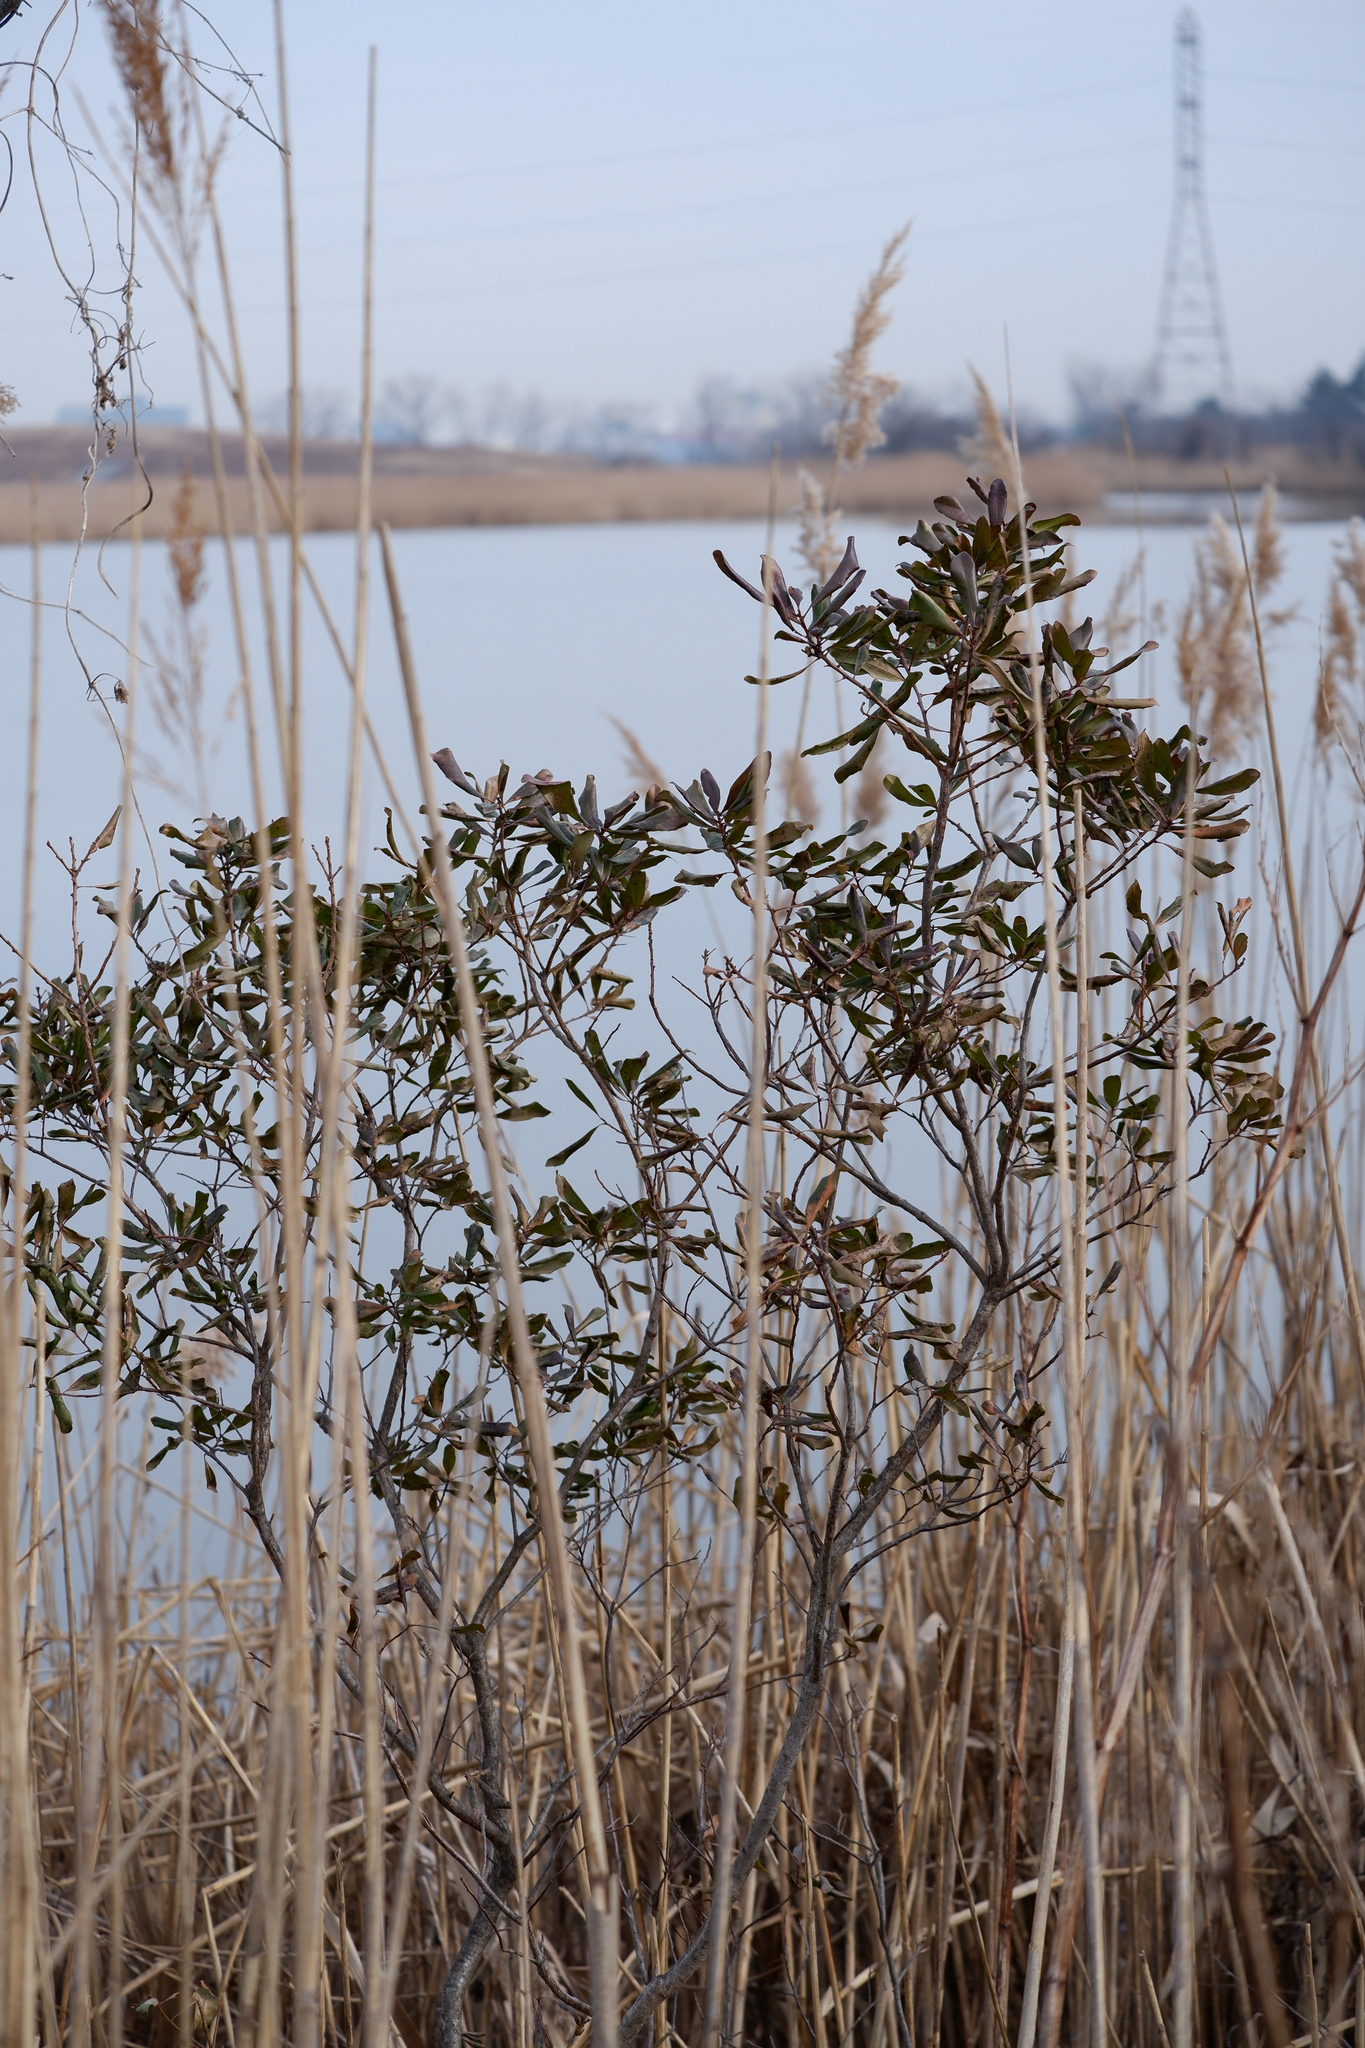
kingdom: Plantae
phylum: Tracheophyta
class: Magnoliopsida
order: Fagales
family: Myricaceae
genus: Morella
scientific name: Morella pensylvanica
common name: Northern bayberry
